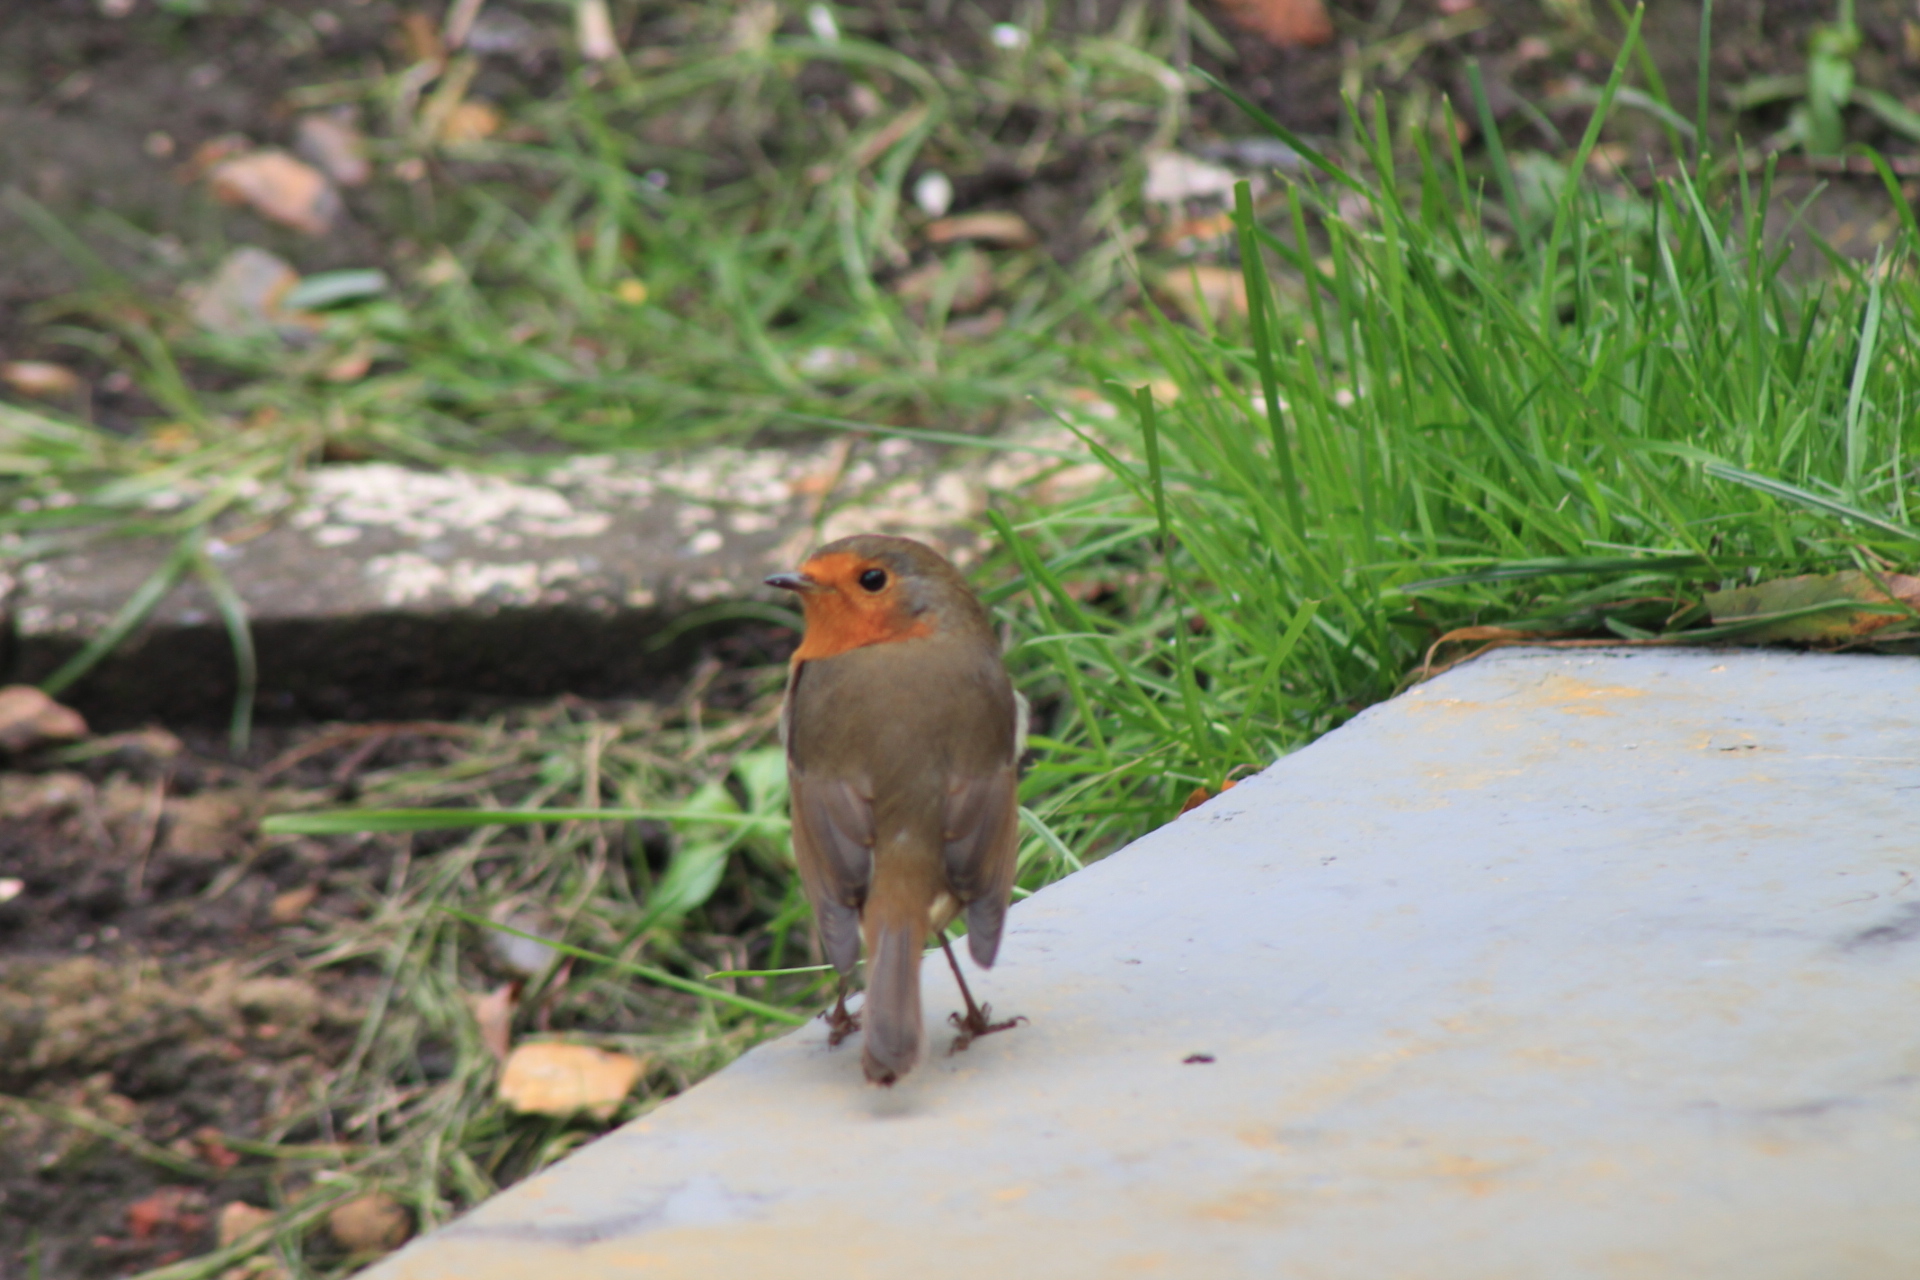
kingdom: Animalia
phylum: Chordata
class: Aves
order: Passeriformes
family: Muscicapidae
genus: Erithacus
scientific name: Erithacus rubecula
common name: European robin
